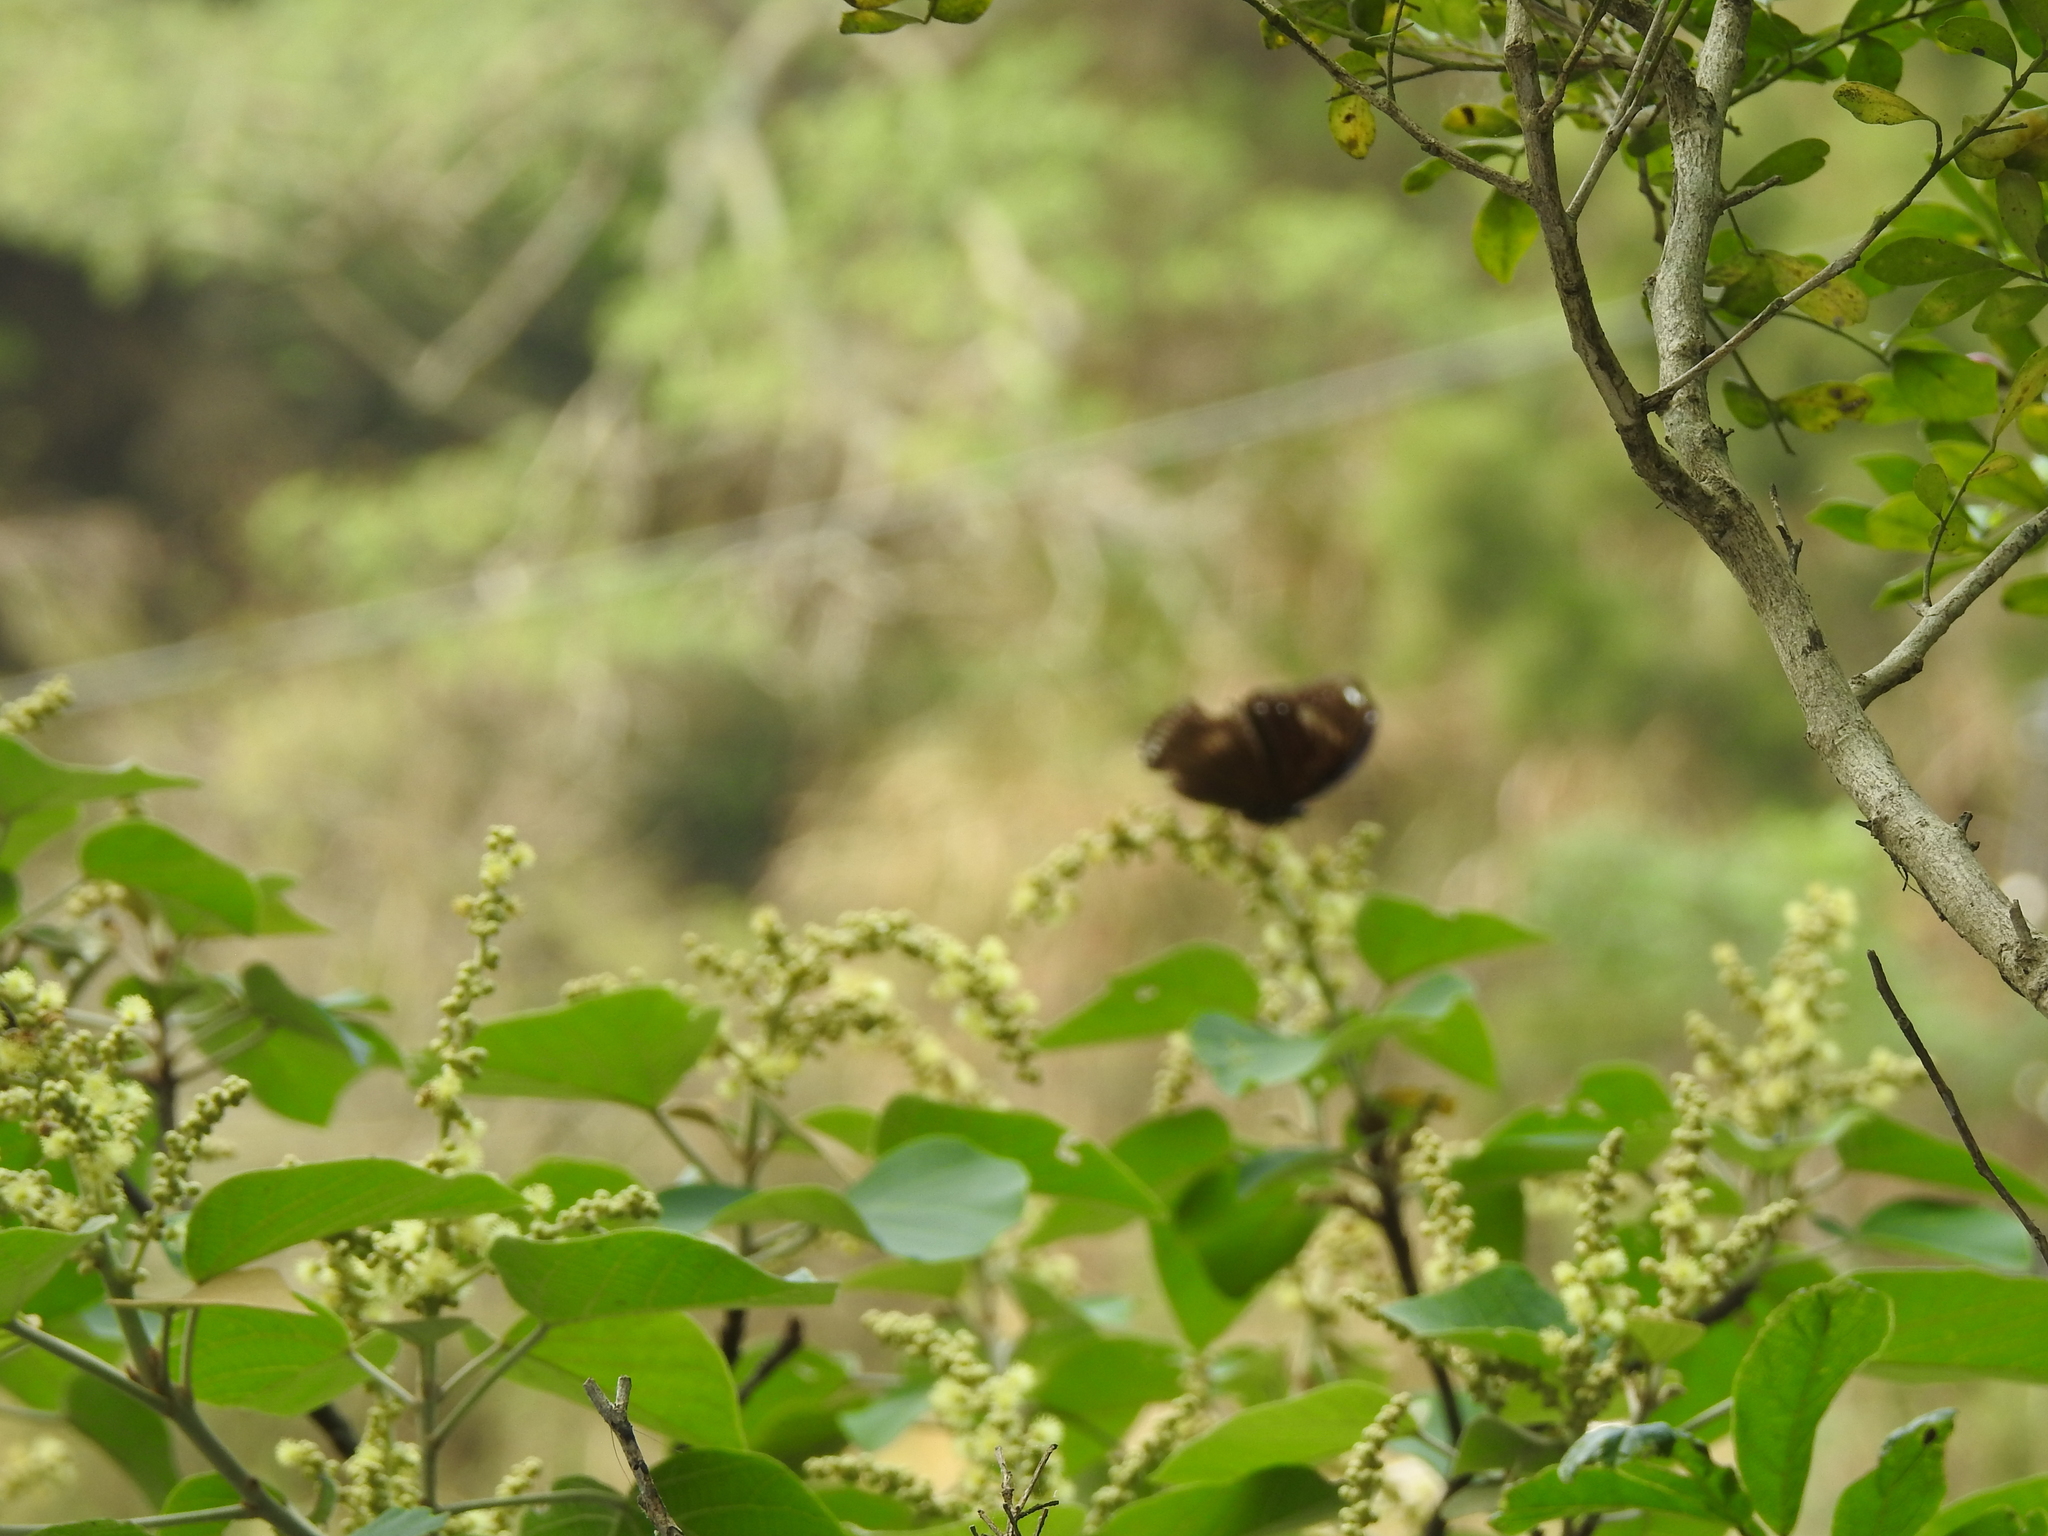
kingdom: Animalia
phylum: Arthropoda
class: Insecta
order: Lepidoptera
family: Nymphalidae
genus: Hypolimnas
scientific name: Hypolimnas bolina
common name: Great eggfly
